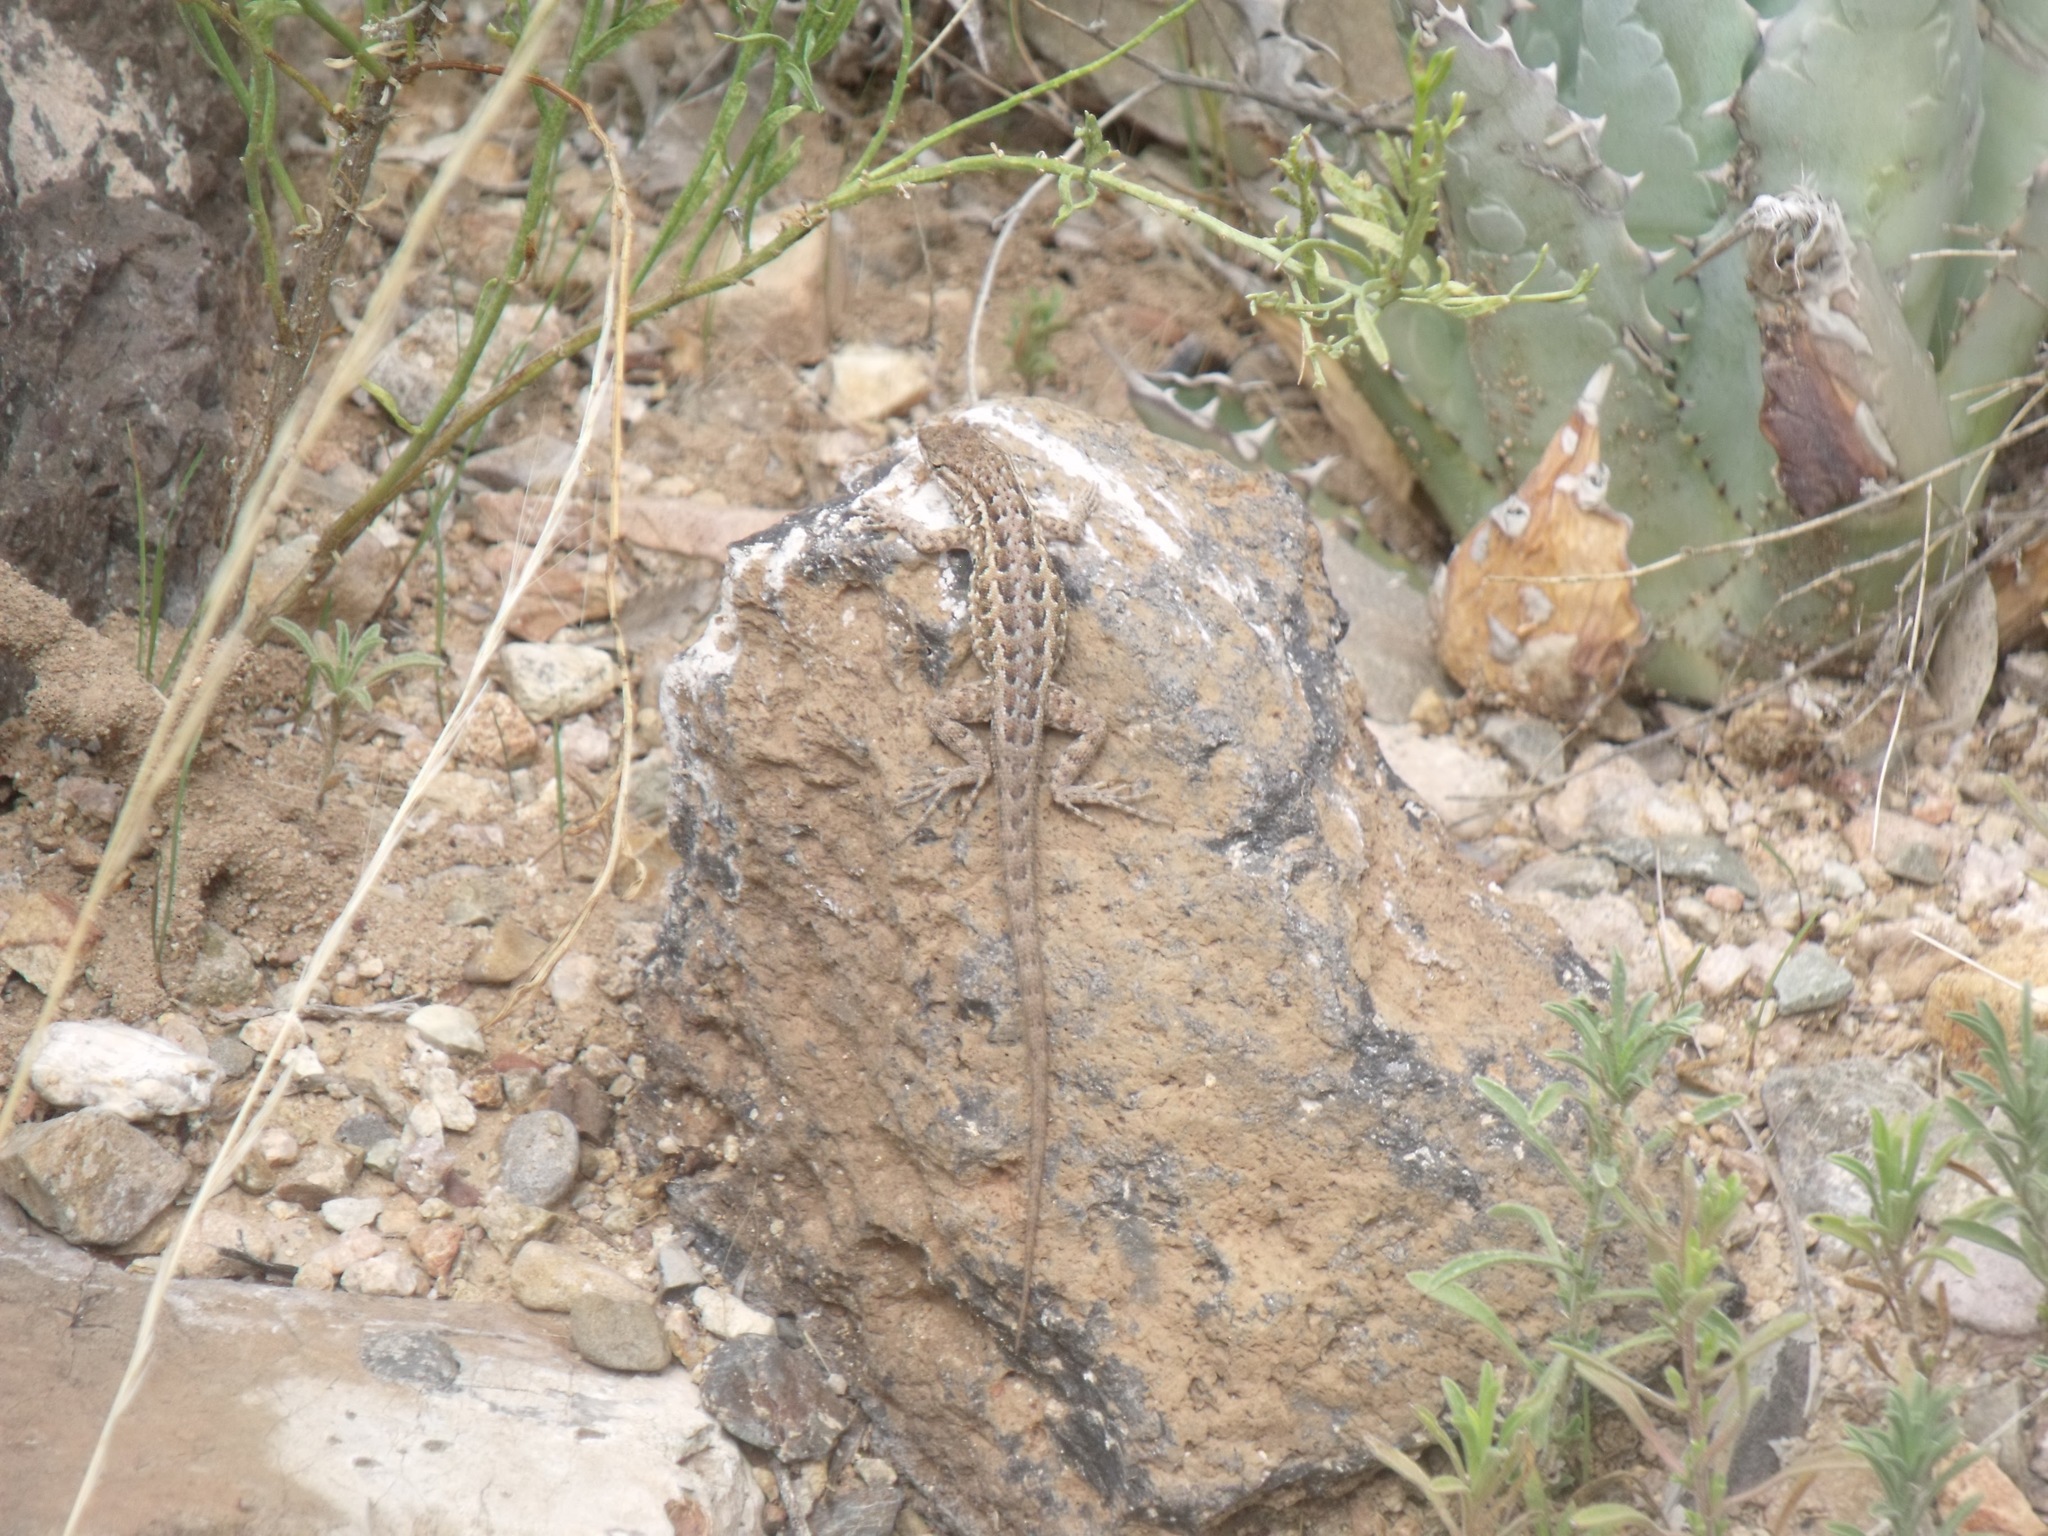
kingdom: Animalia
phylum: Chordata
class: Squamata
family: Phrynosomatidae
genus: Uta
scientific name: Uta stansburiana
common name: Side-blotched lizard
